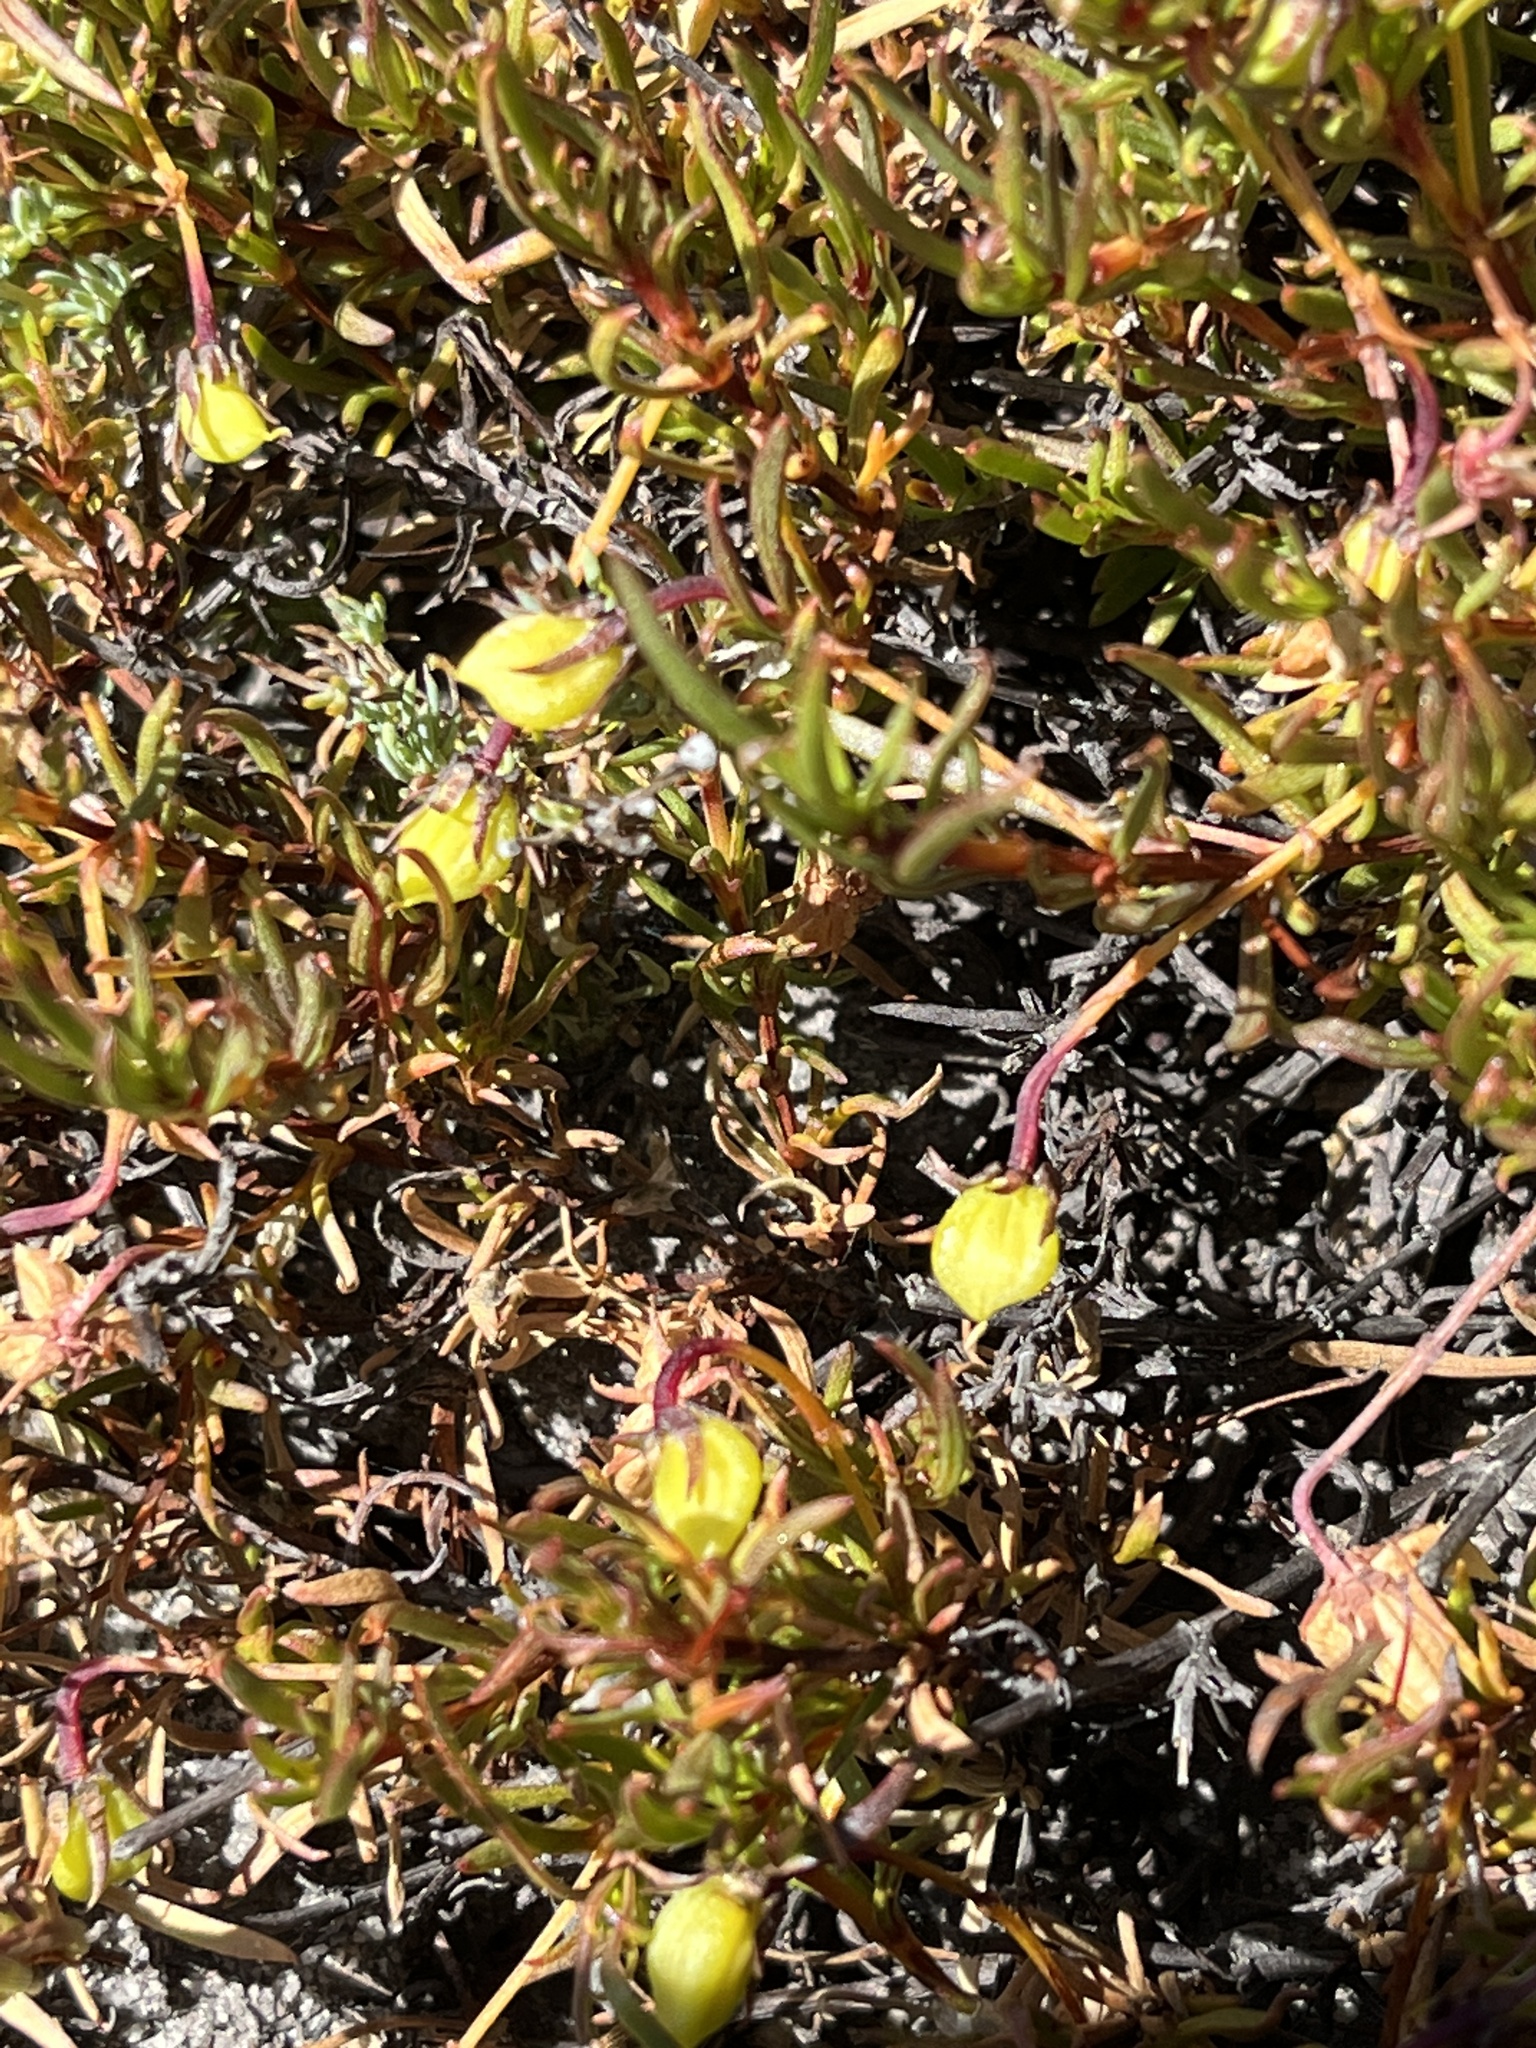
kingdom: Plantae
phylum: Tracheophyta
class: Magnoliopsida
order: Zygophyllales
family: Zygophyllaceae
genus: Roepera
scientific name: Roepera spinosa
